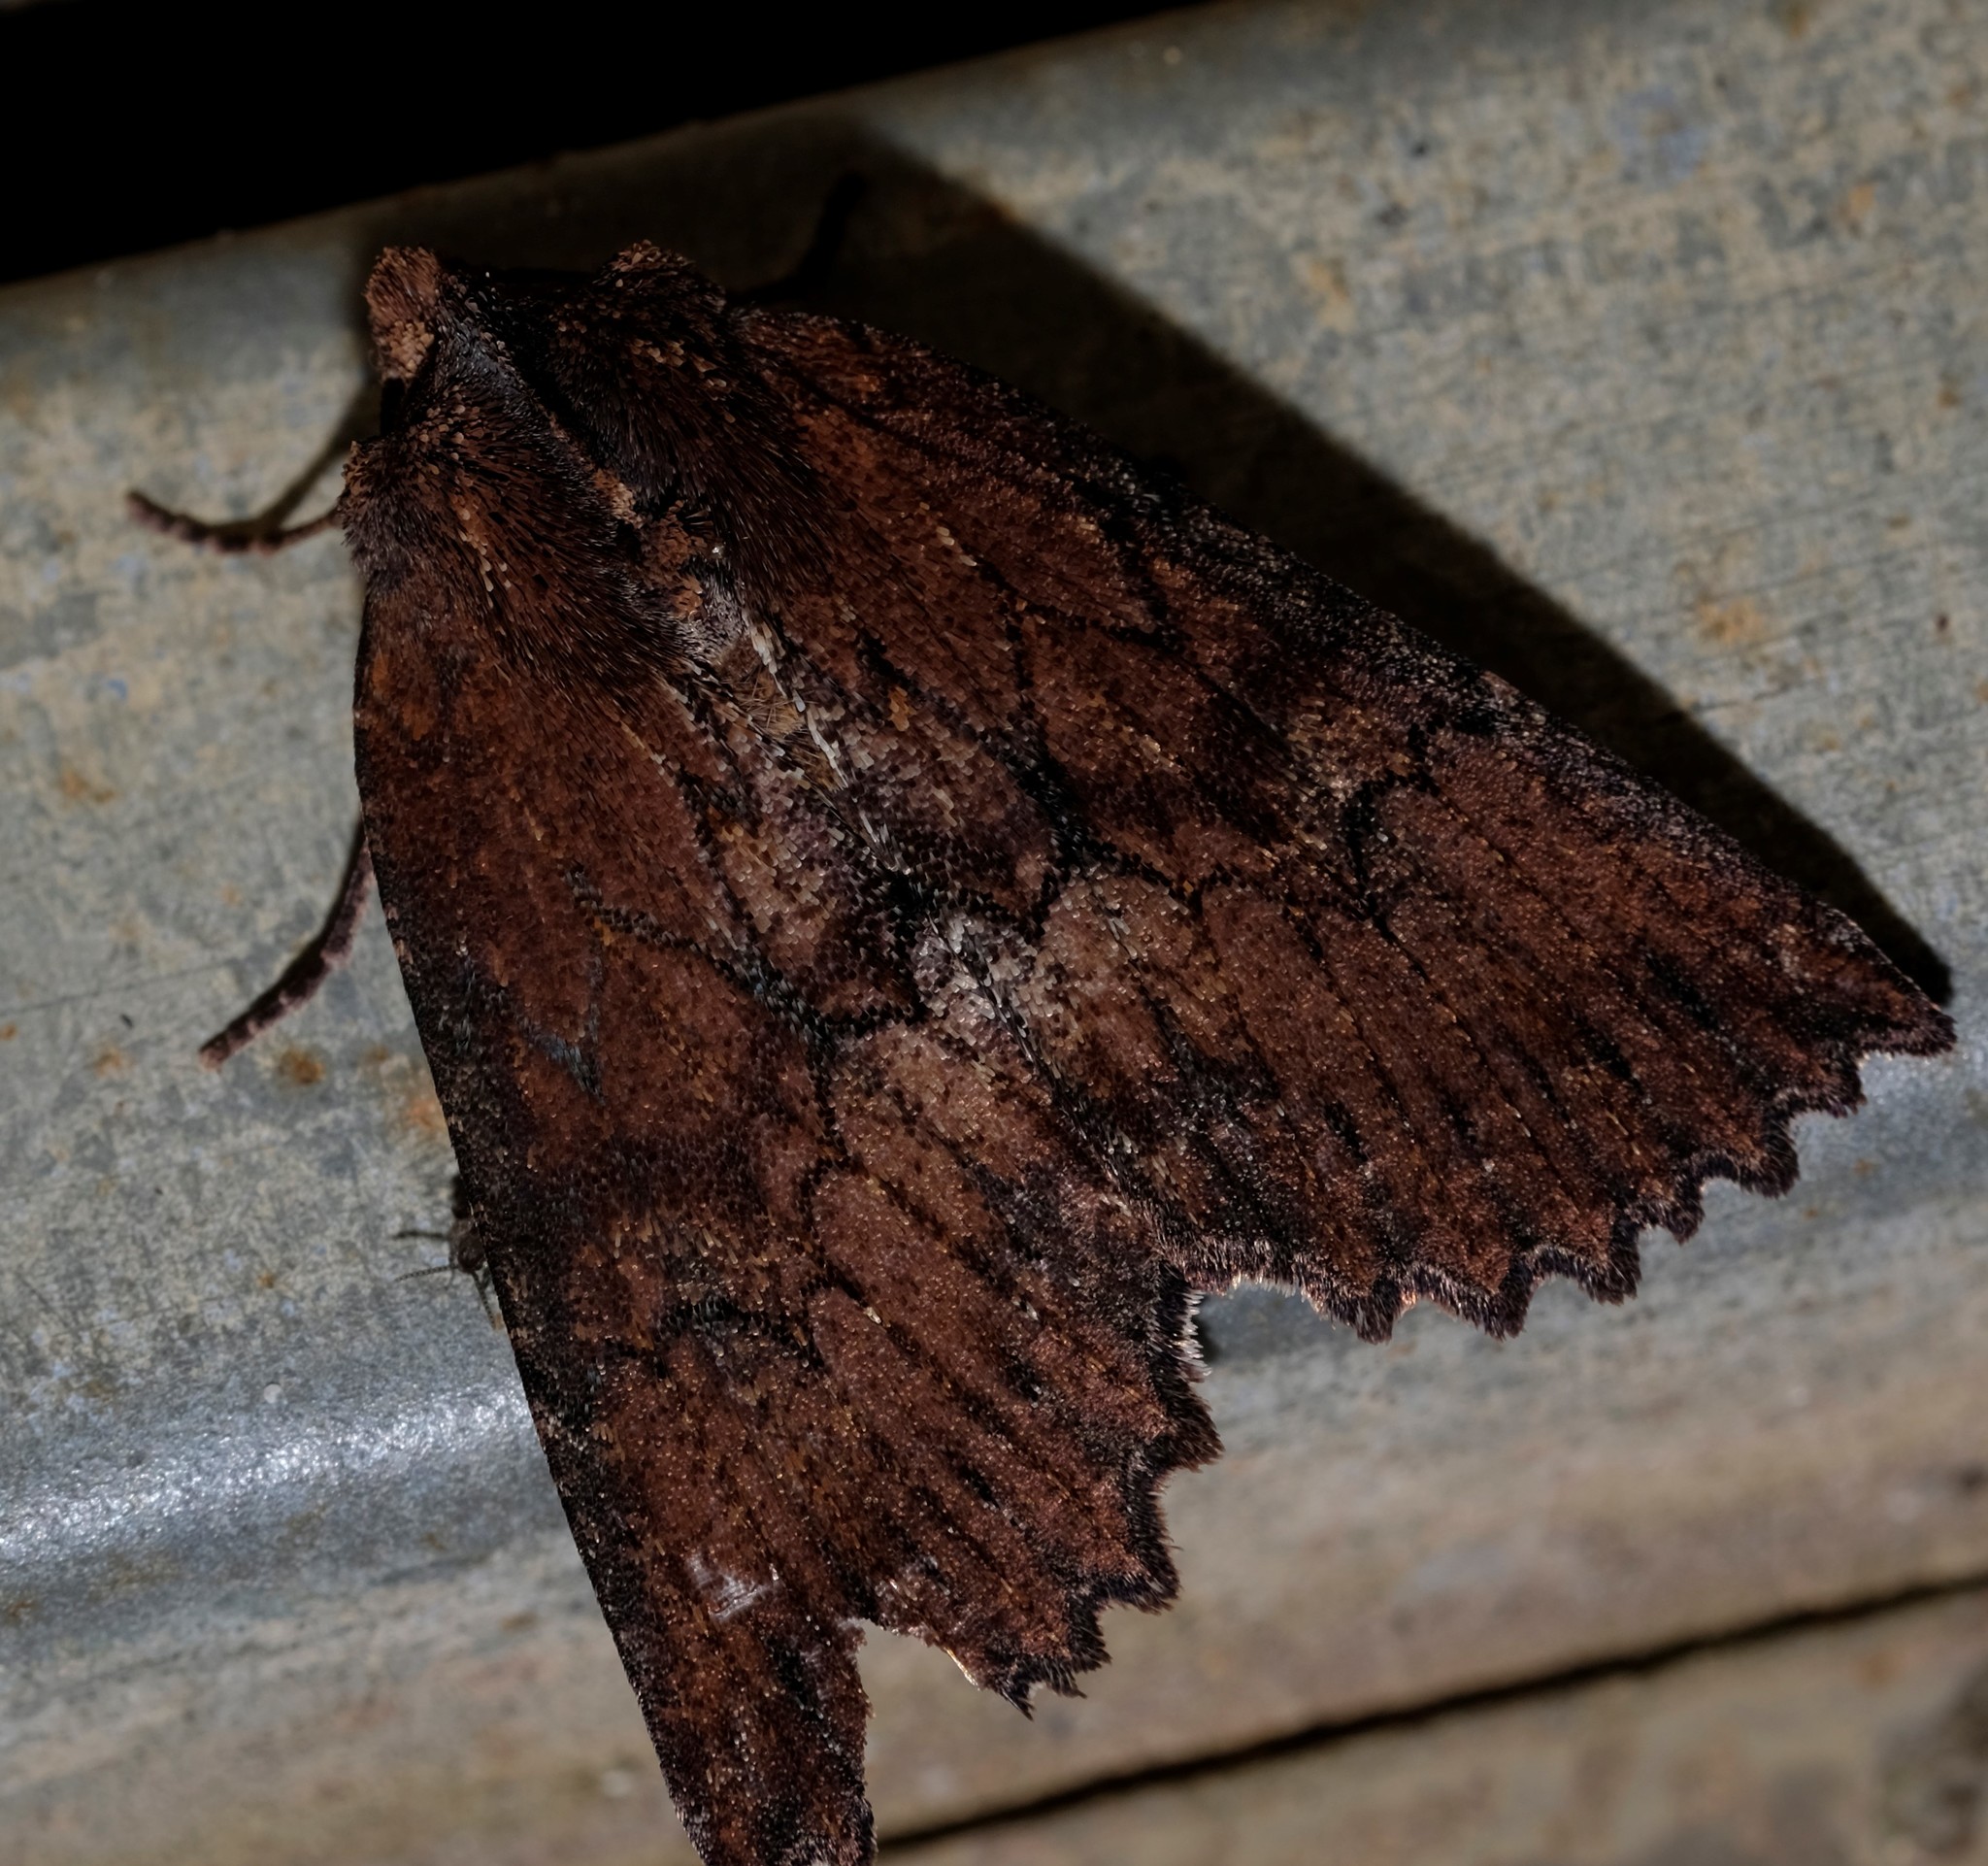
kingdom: Animalia
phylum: Arthropoda
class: Insecta
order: Lepidoptera
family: Geometridae
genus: Nisista
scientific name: Nisista serrata
